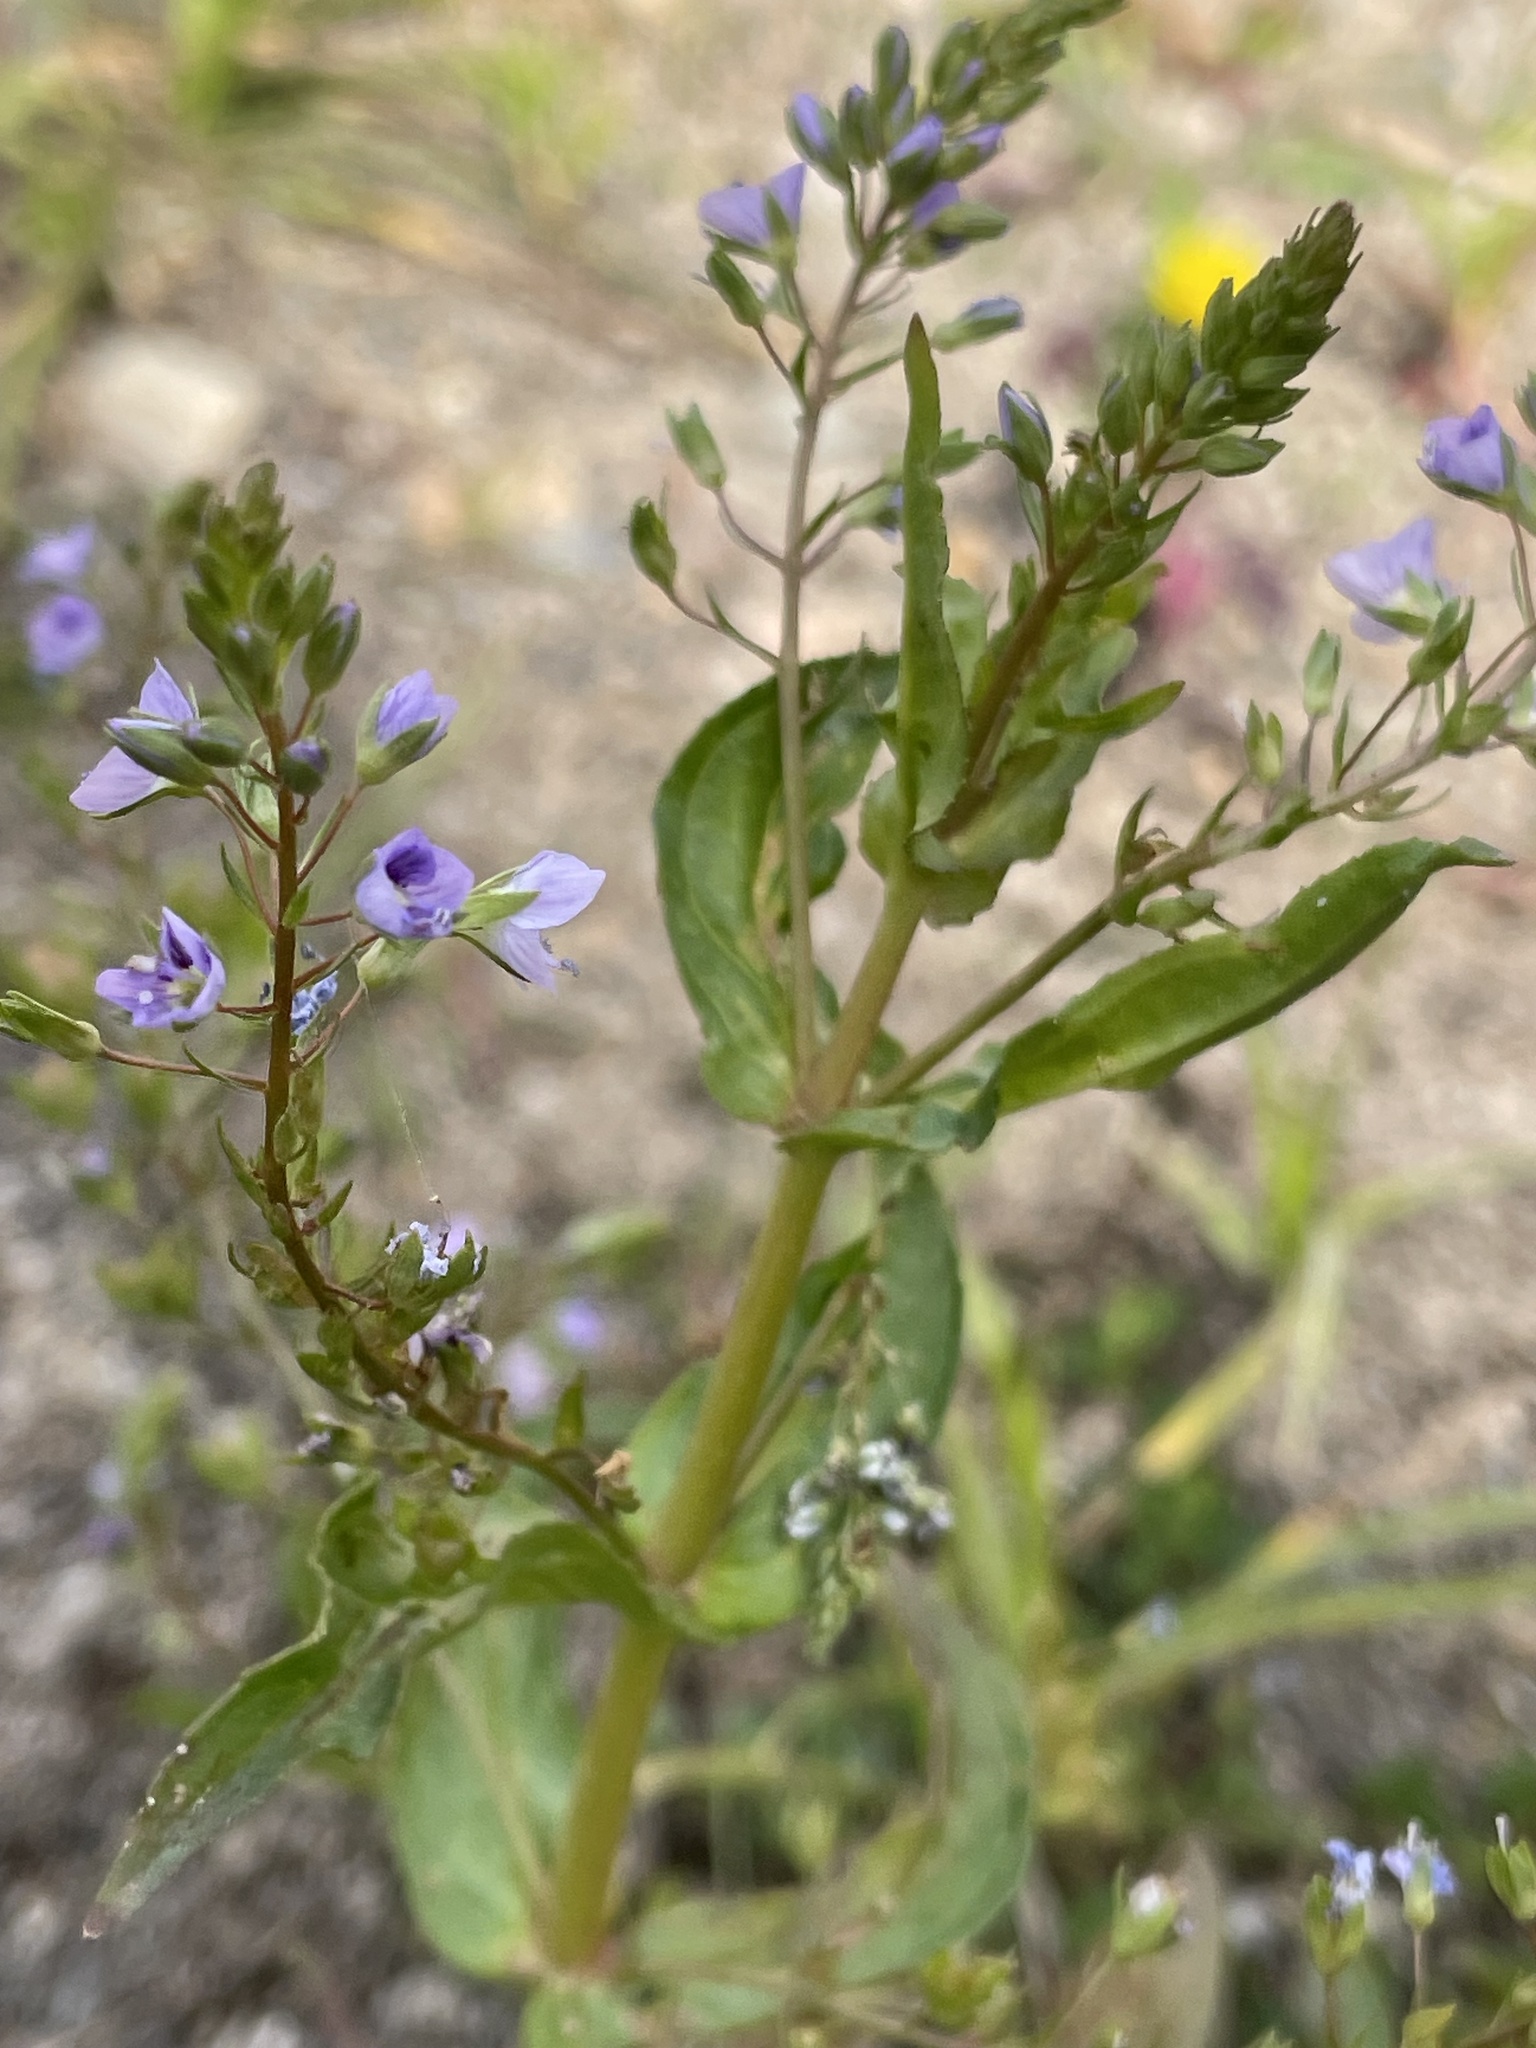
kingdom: Plantae
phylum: Tracheophyta
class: Magnoliopsida
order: Lamiales
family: Plantaginaceae
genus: Veronica
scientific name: Veronica anagallis-aquatica
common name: Water speedwell
